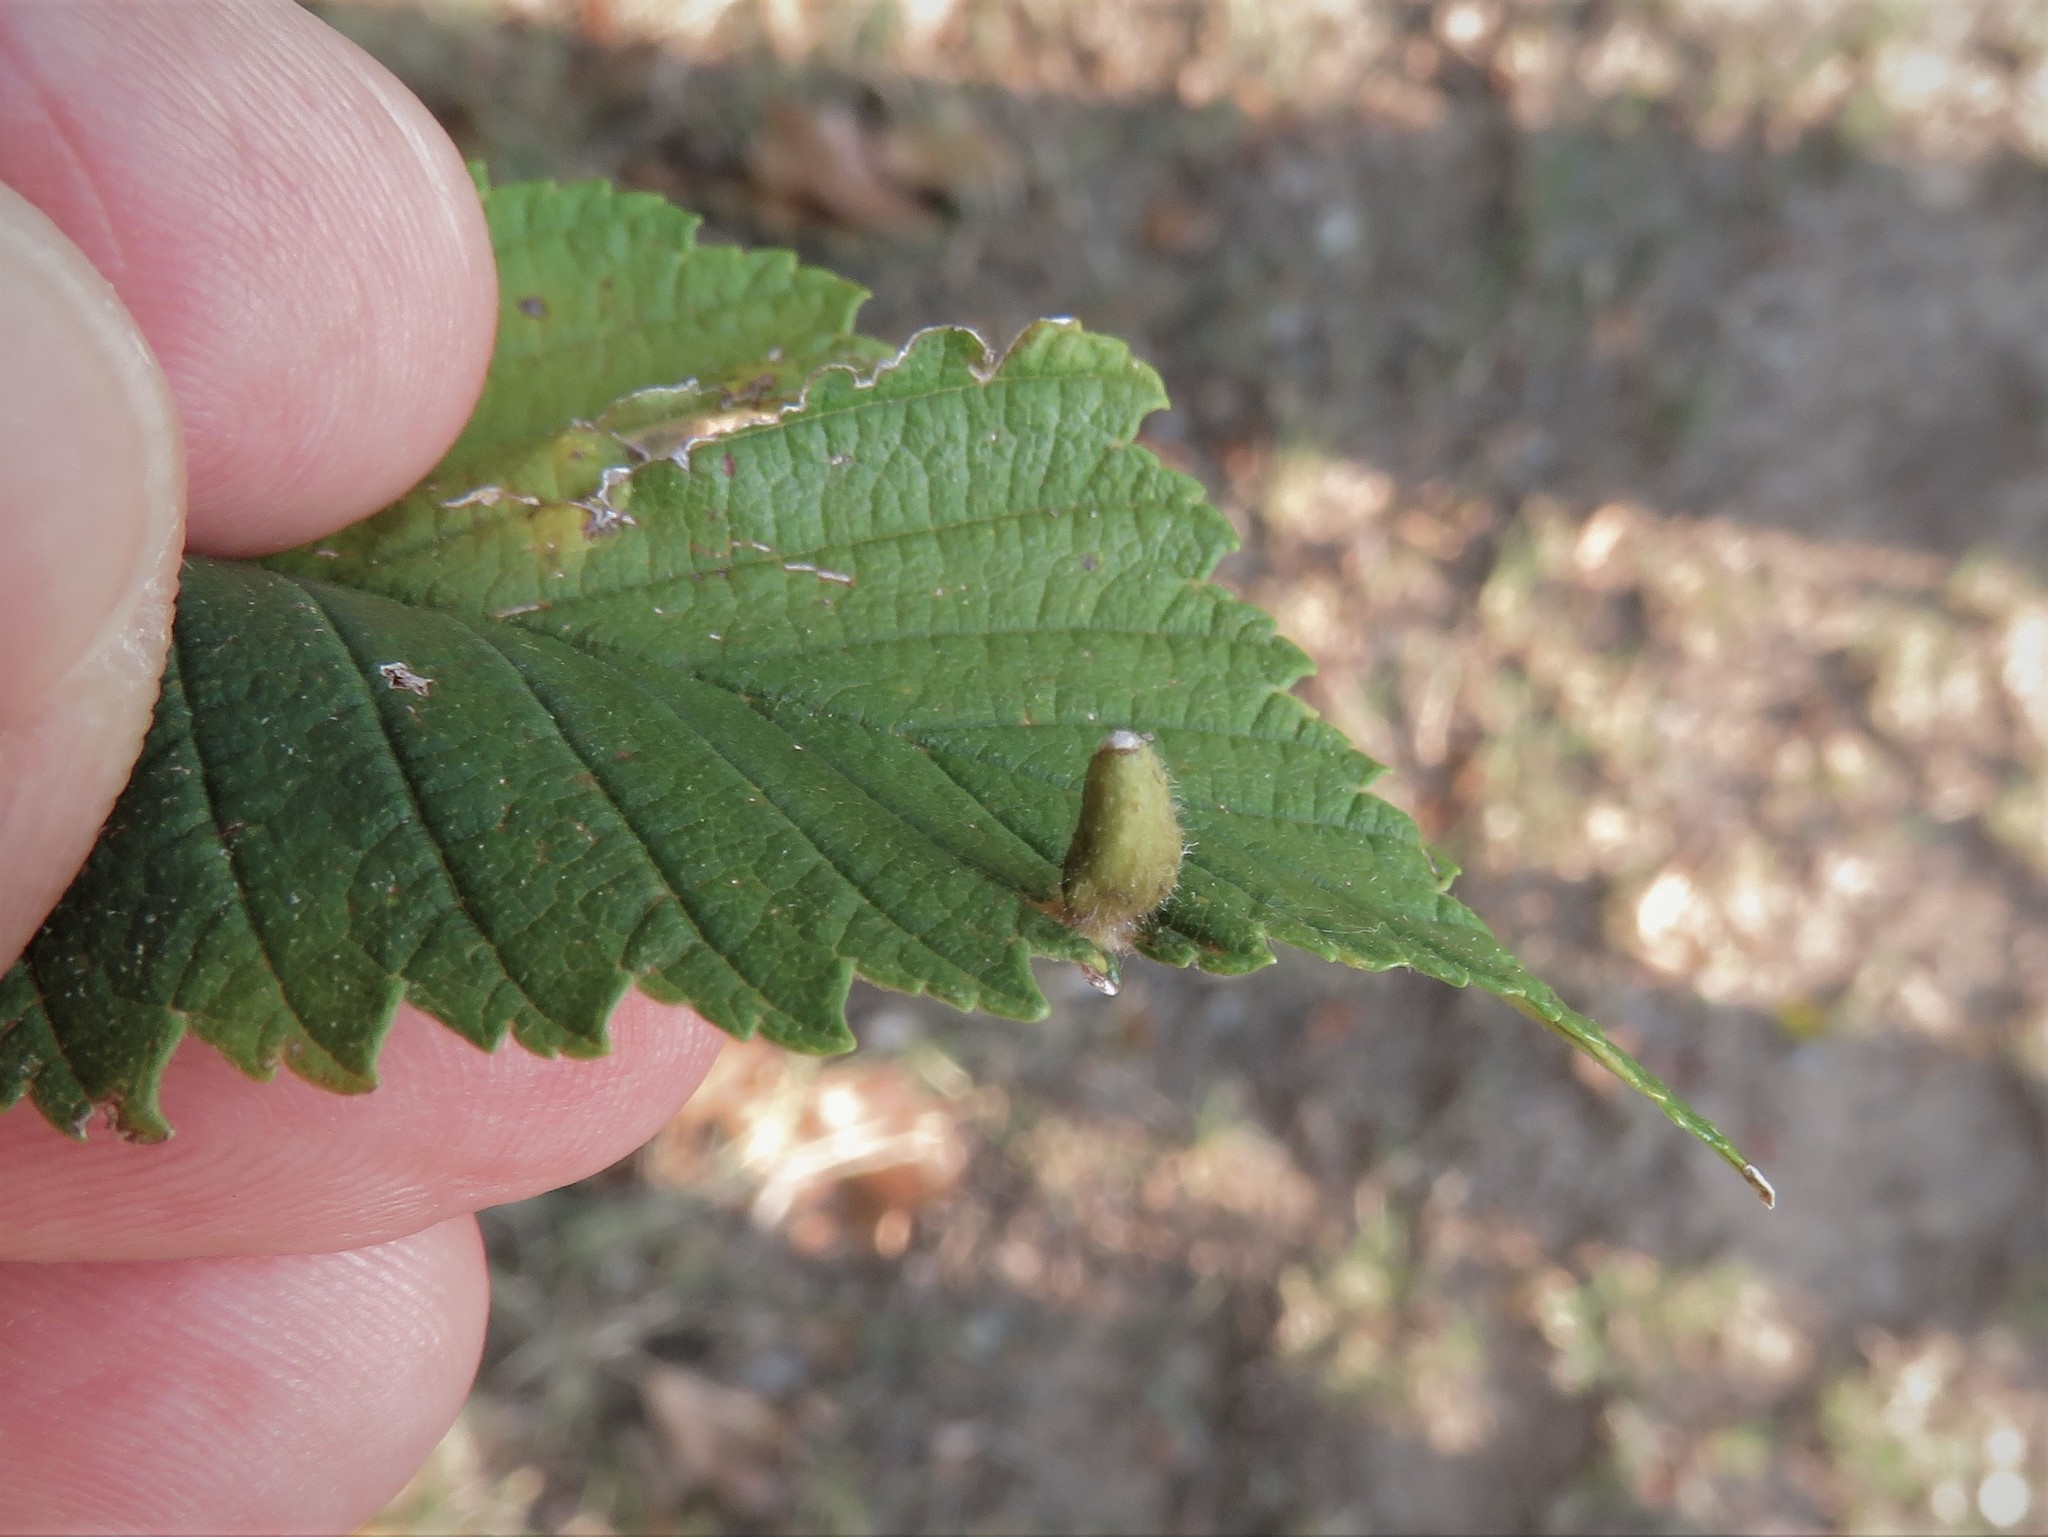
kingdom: Animalia
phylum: Arthropoda
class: Arachnida
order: Trombidiformes
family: Eriophyidae
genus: Aceria
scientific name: Aceria
